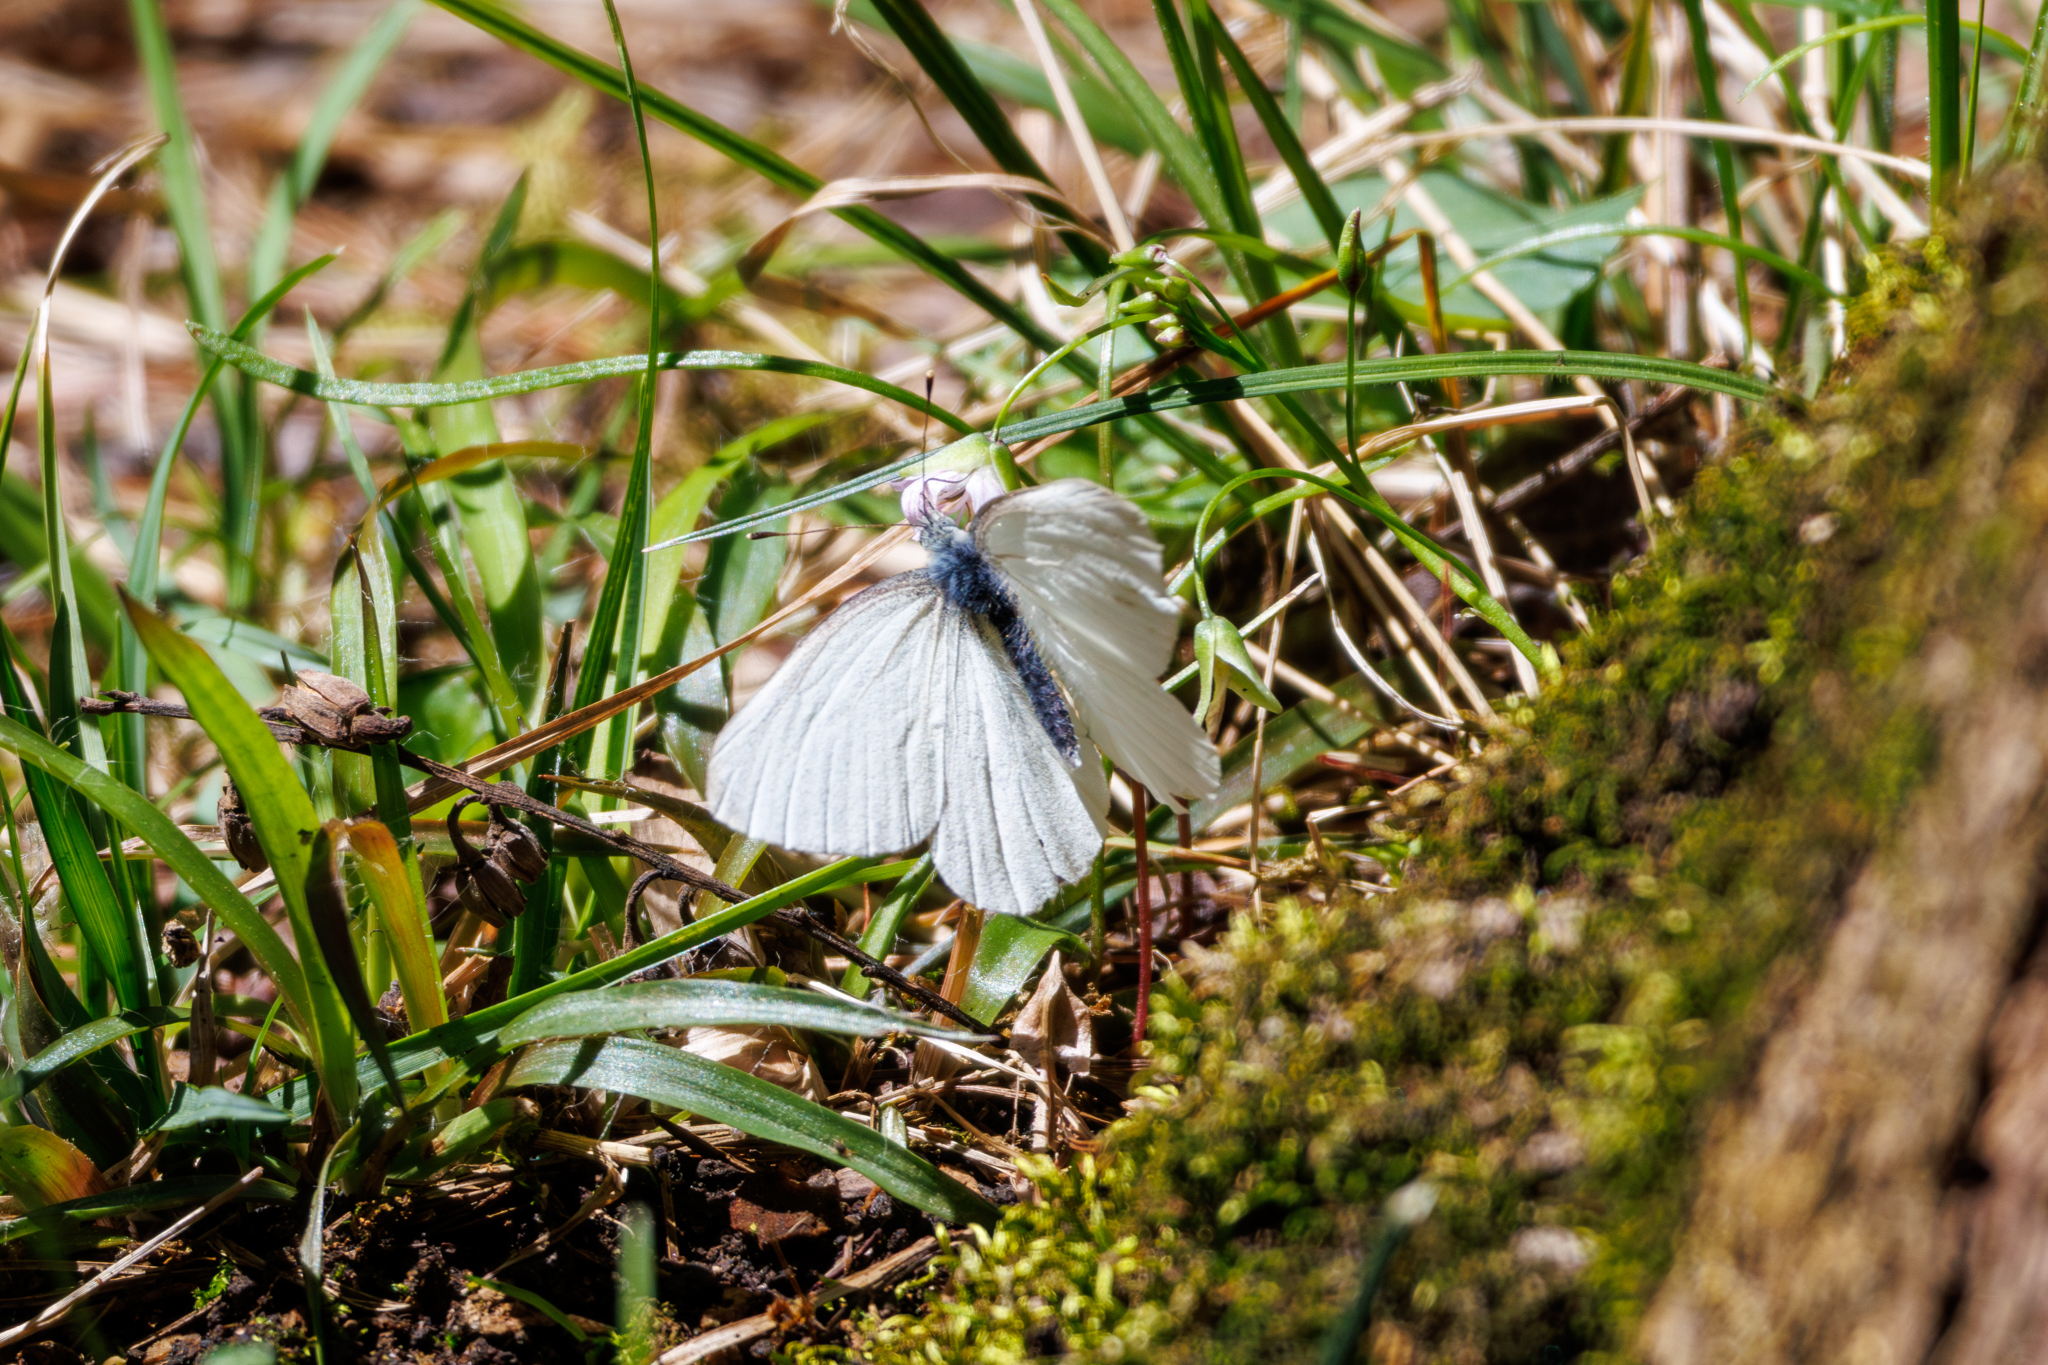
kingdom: Animalia
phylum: Arthropoda
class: Insecta
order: Lepidoptera
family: Pieridae
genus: Pieris
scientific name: Pieris virginiensis
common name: West virginia white
